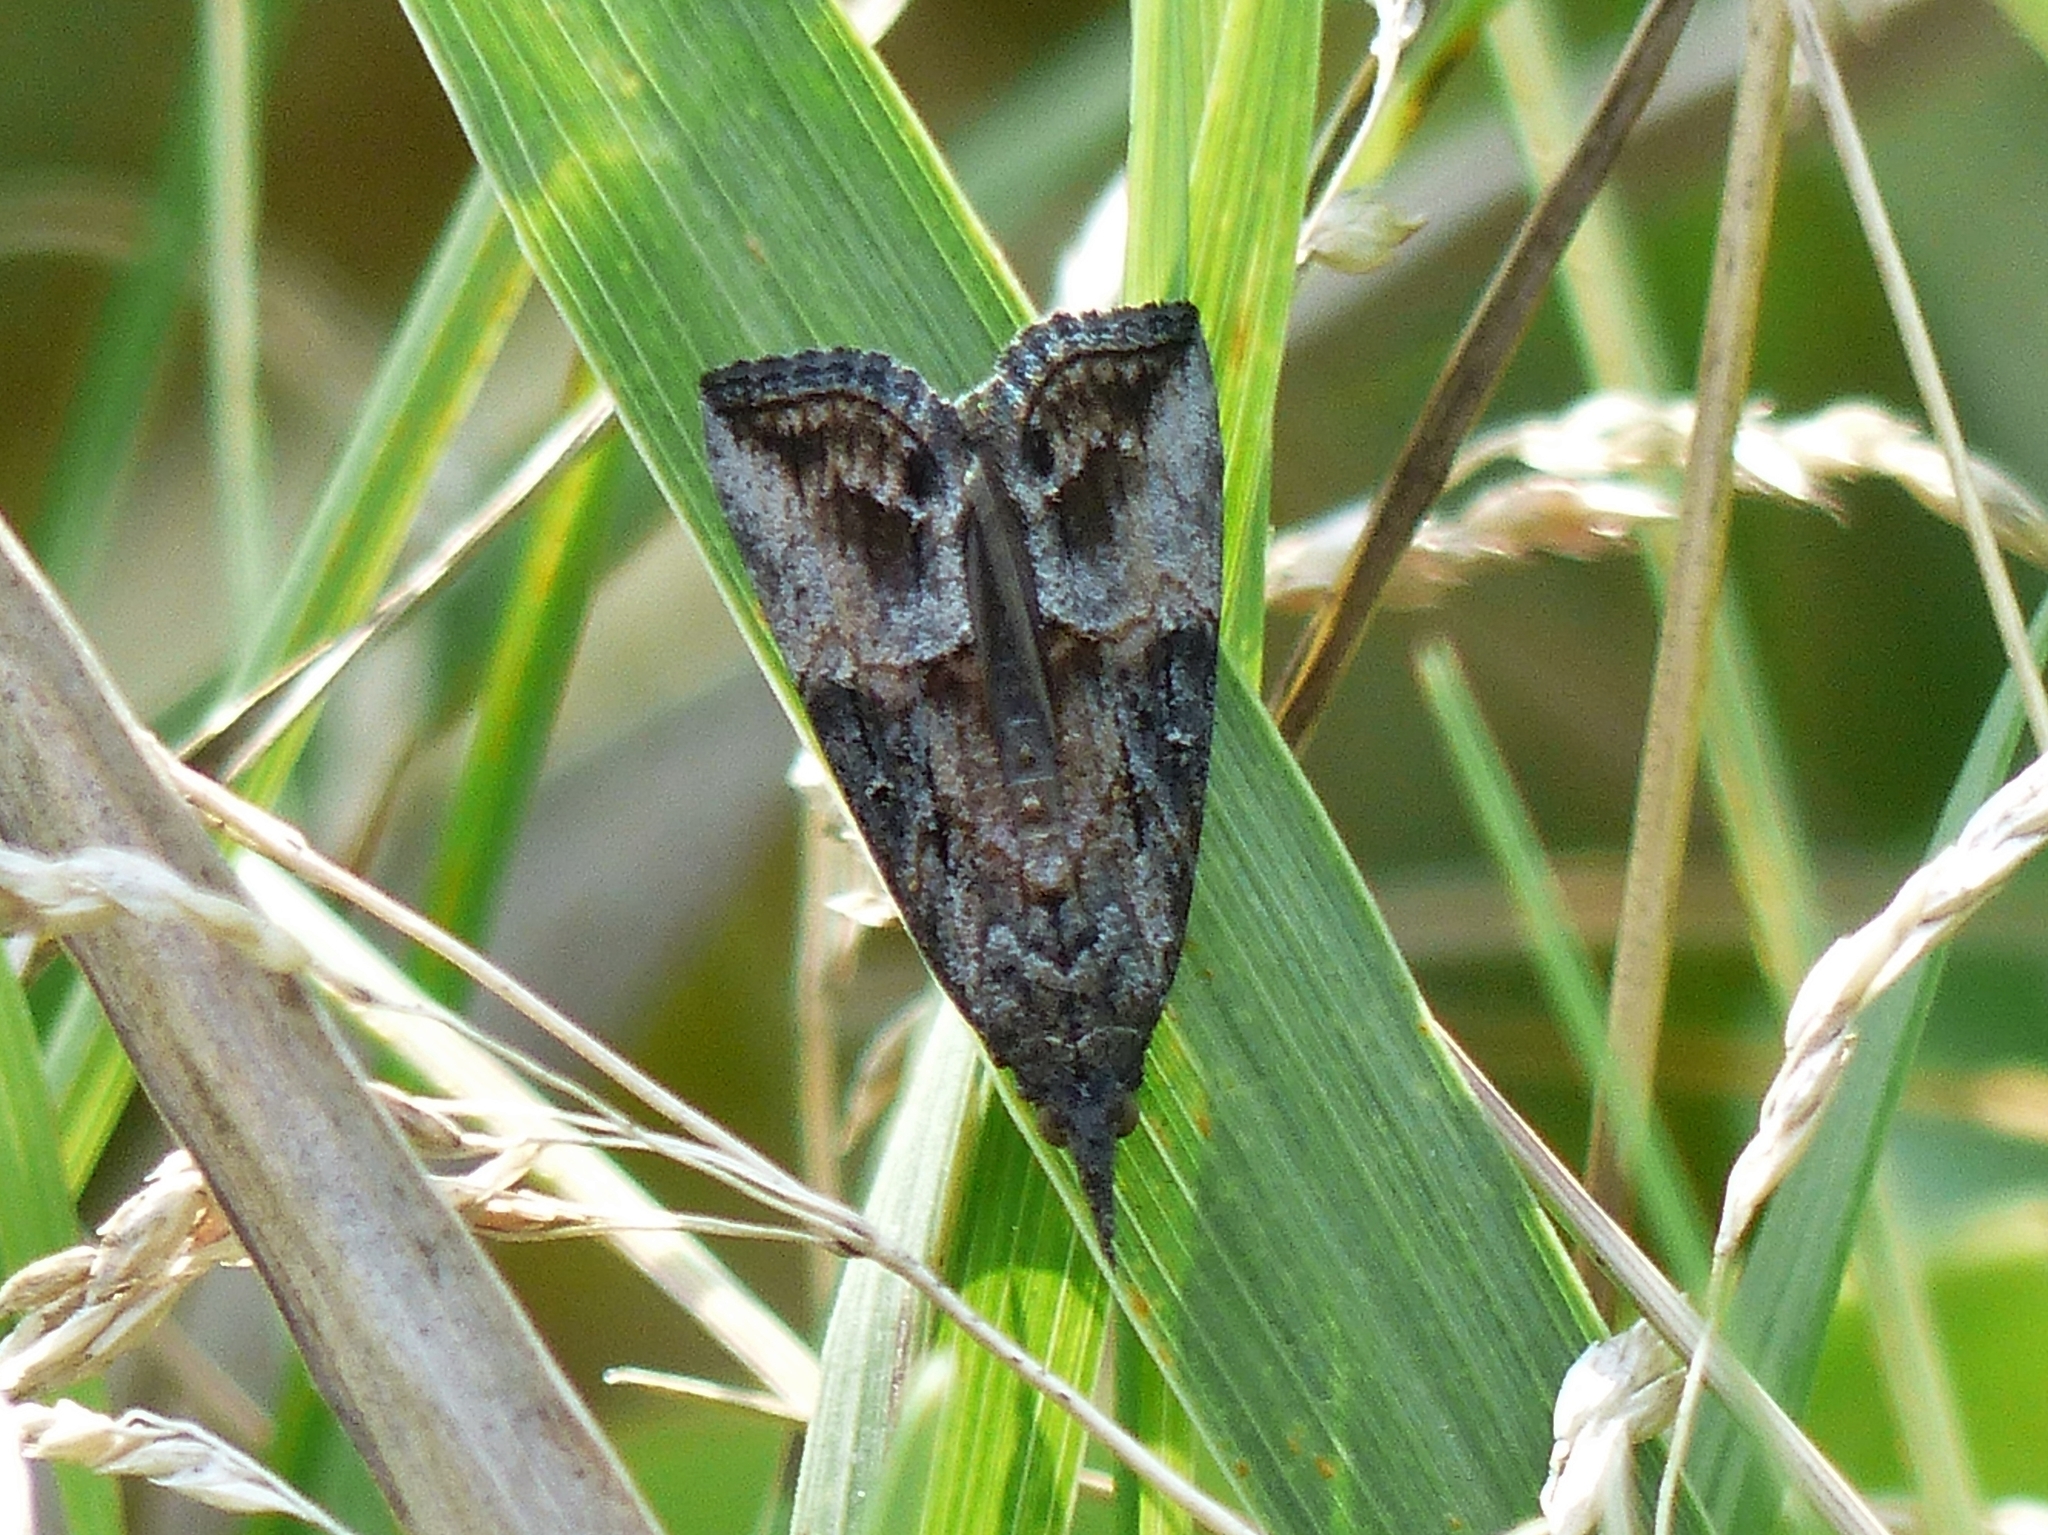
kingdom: Animalia
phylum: Arthropoda
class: Insecta
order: Lepidoptera
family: Erebidae
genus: Hypena
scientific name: Hypena scabra
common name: Green cloverworm
